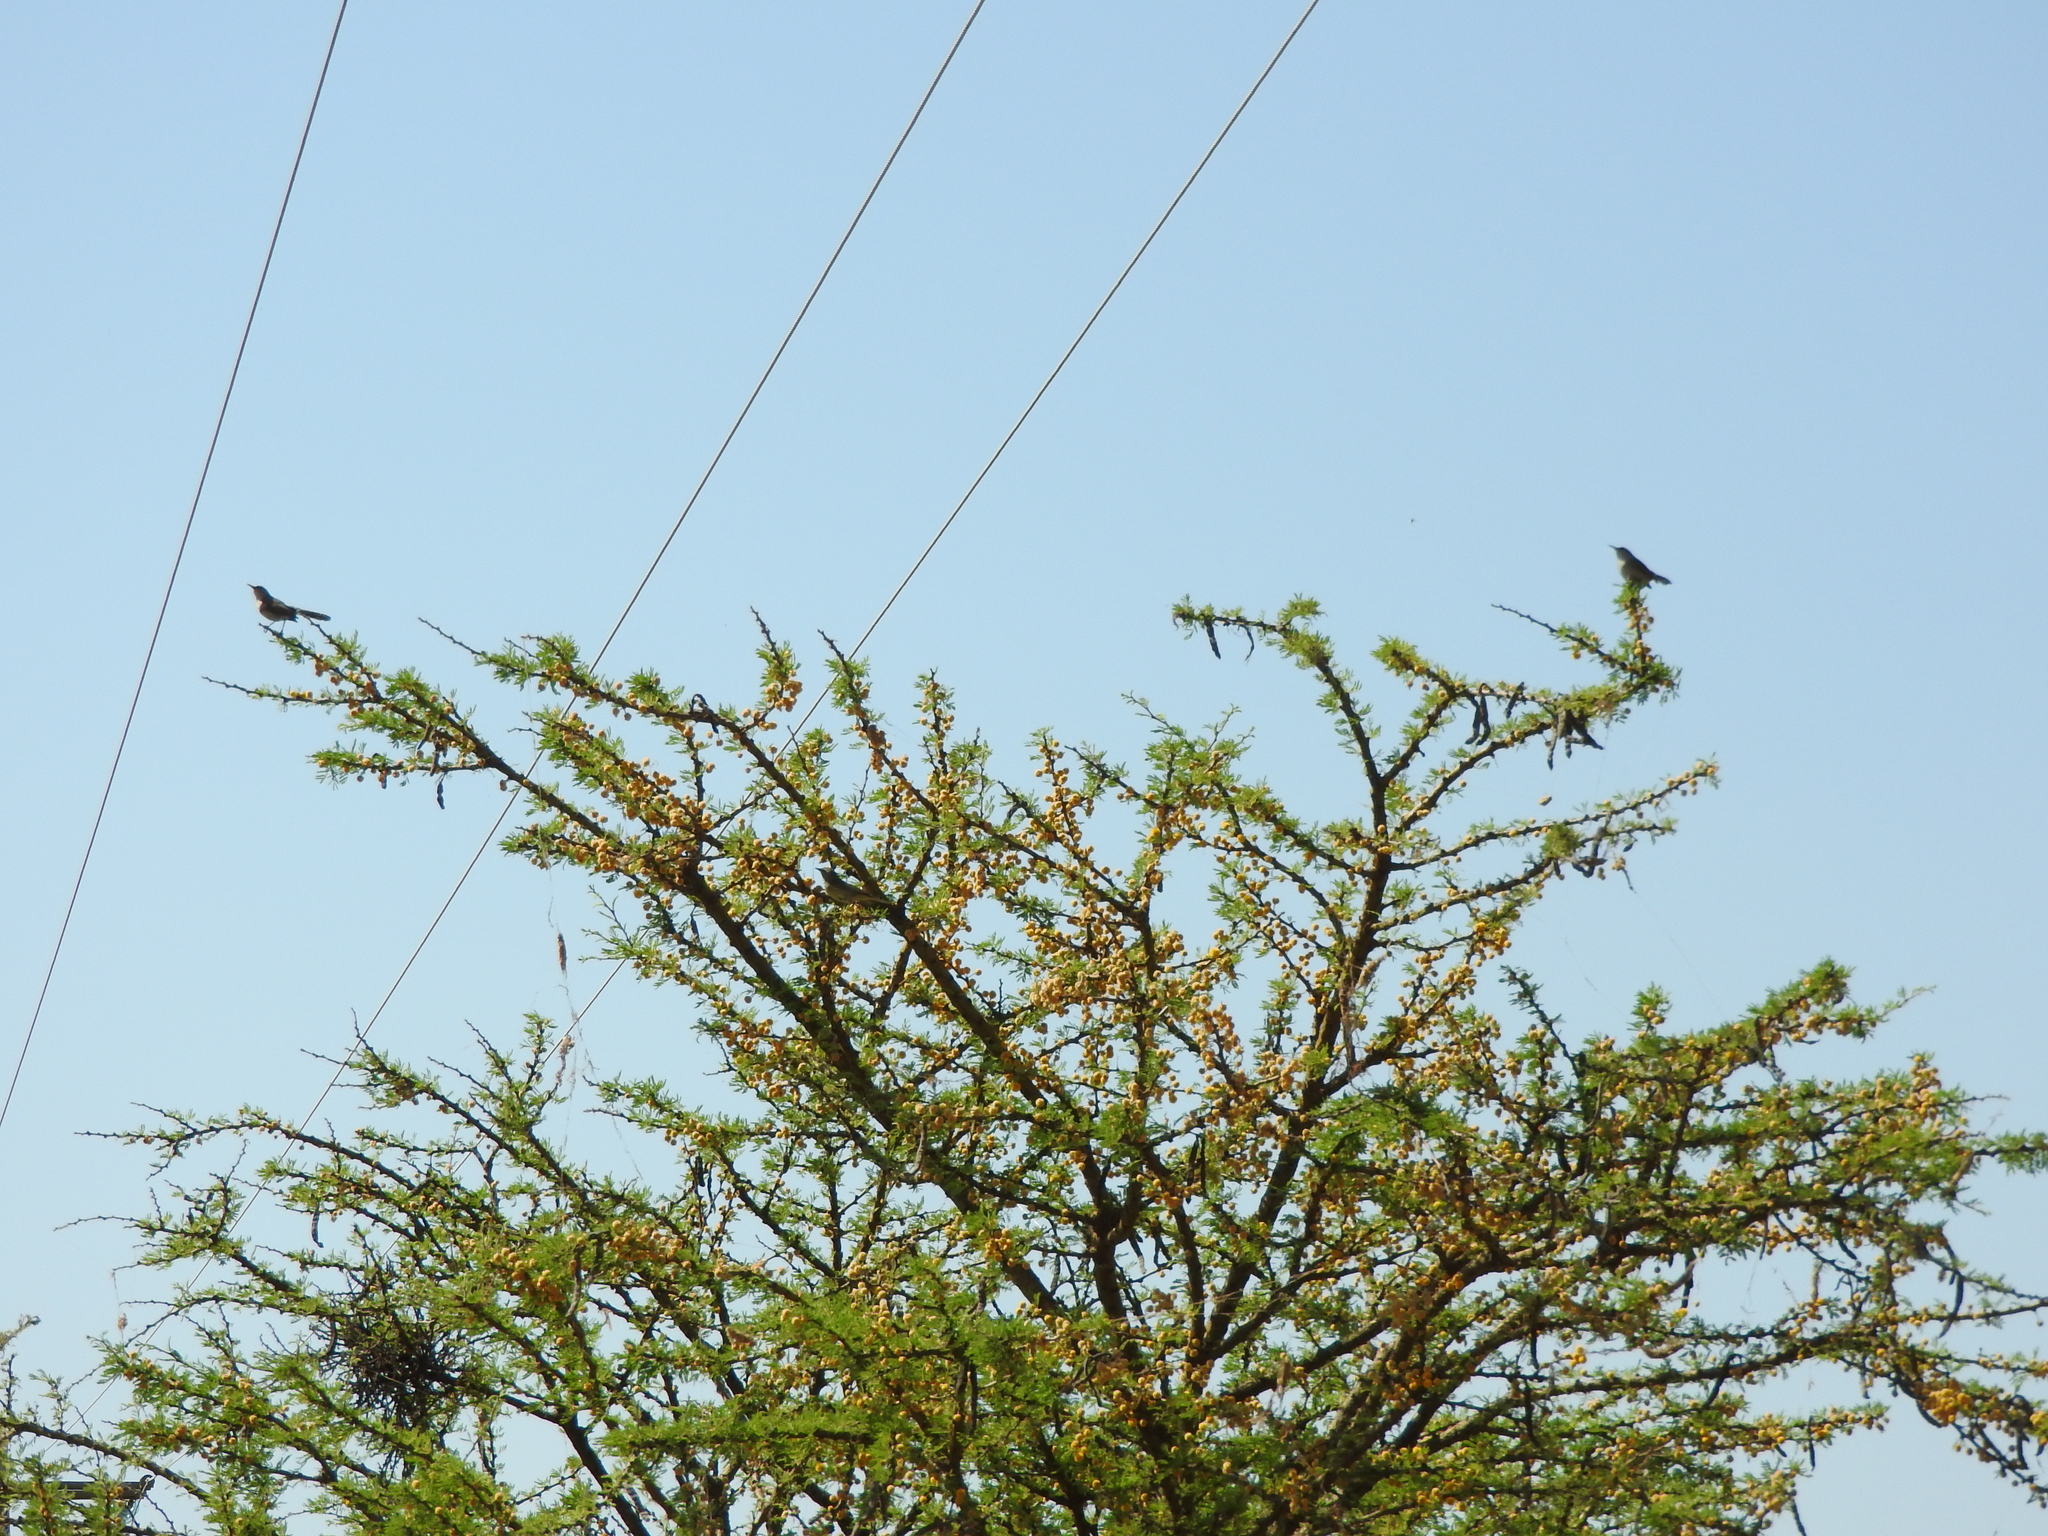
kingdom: Animalia
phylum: Chordata
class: Aves
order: Passeriformes
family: Troglodytidae
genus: Thryomanes
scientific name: Thryomanes bewickii
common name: Bewick's wren
